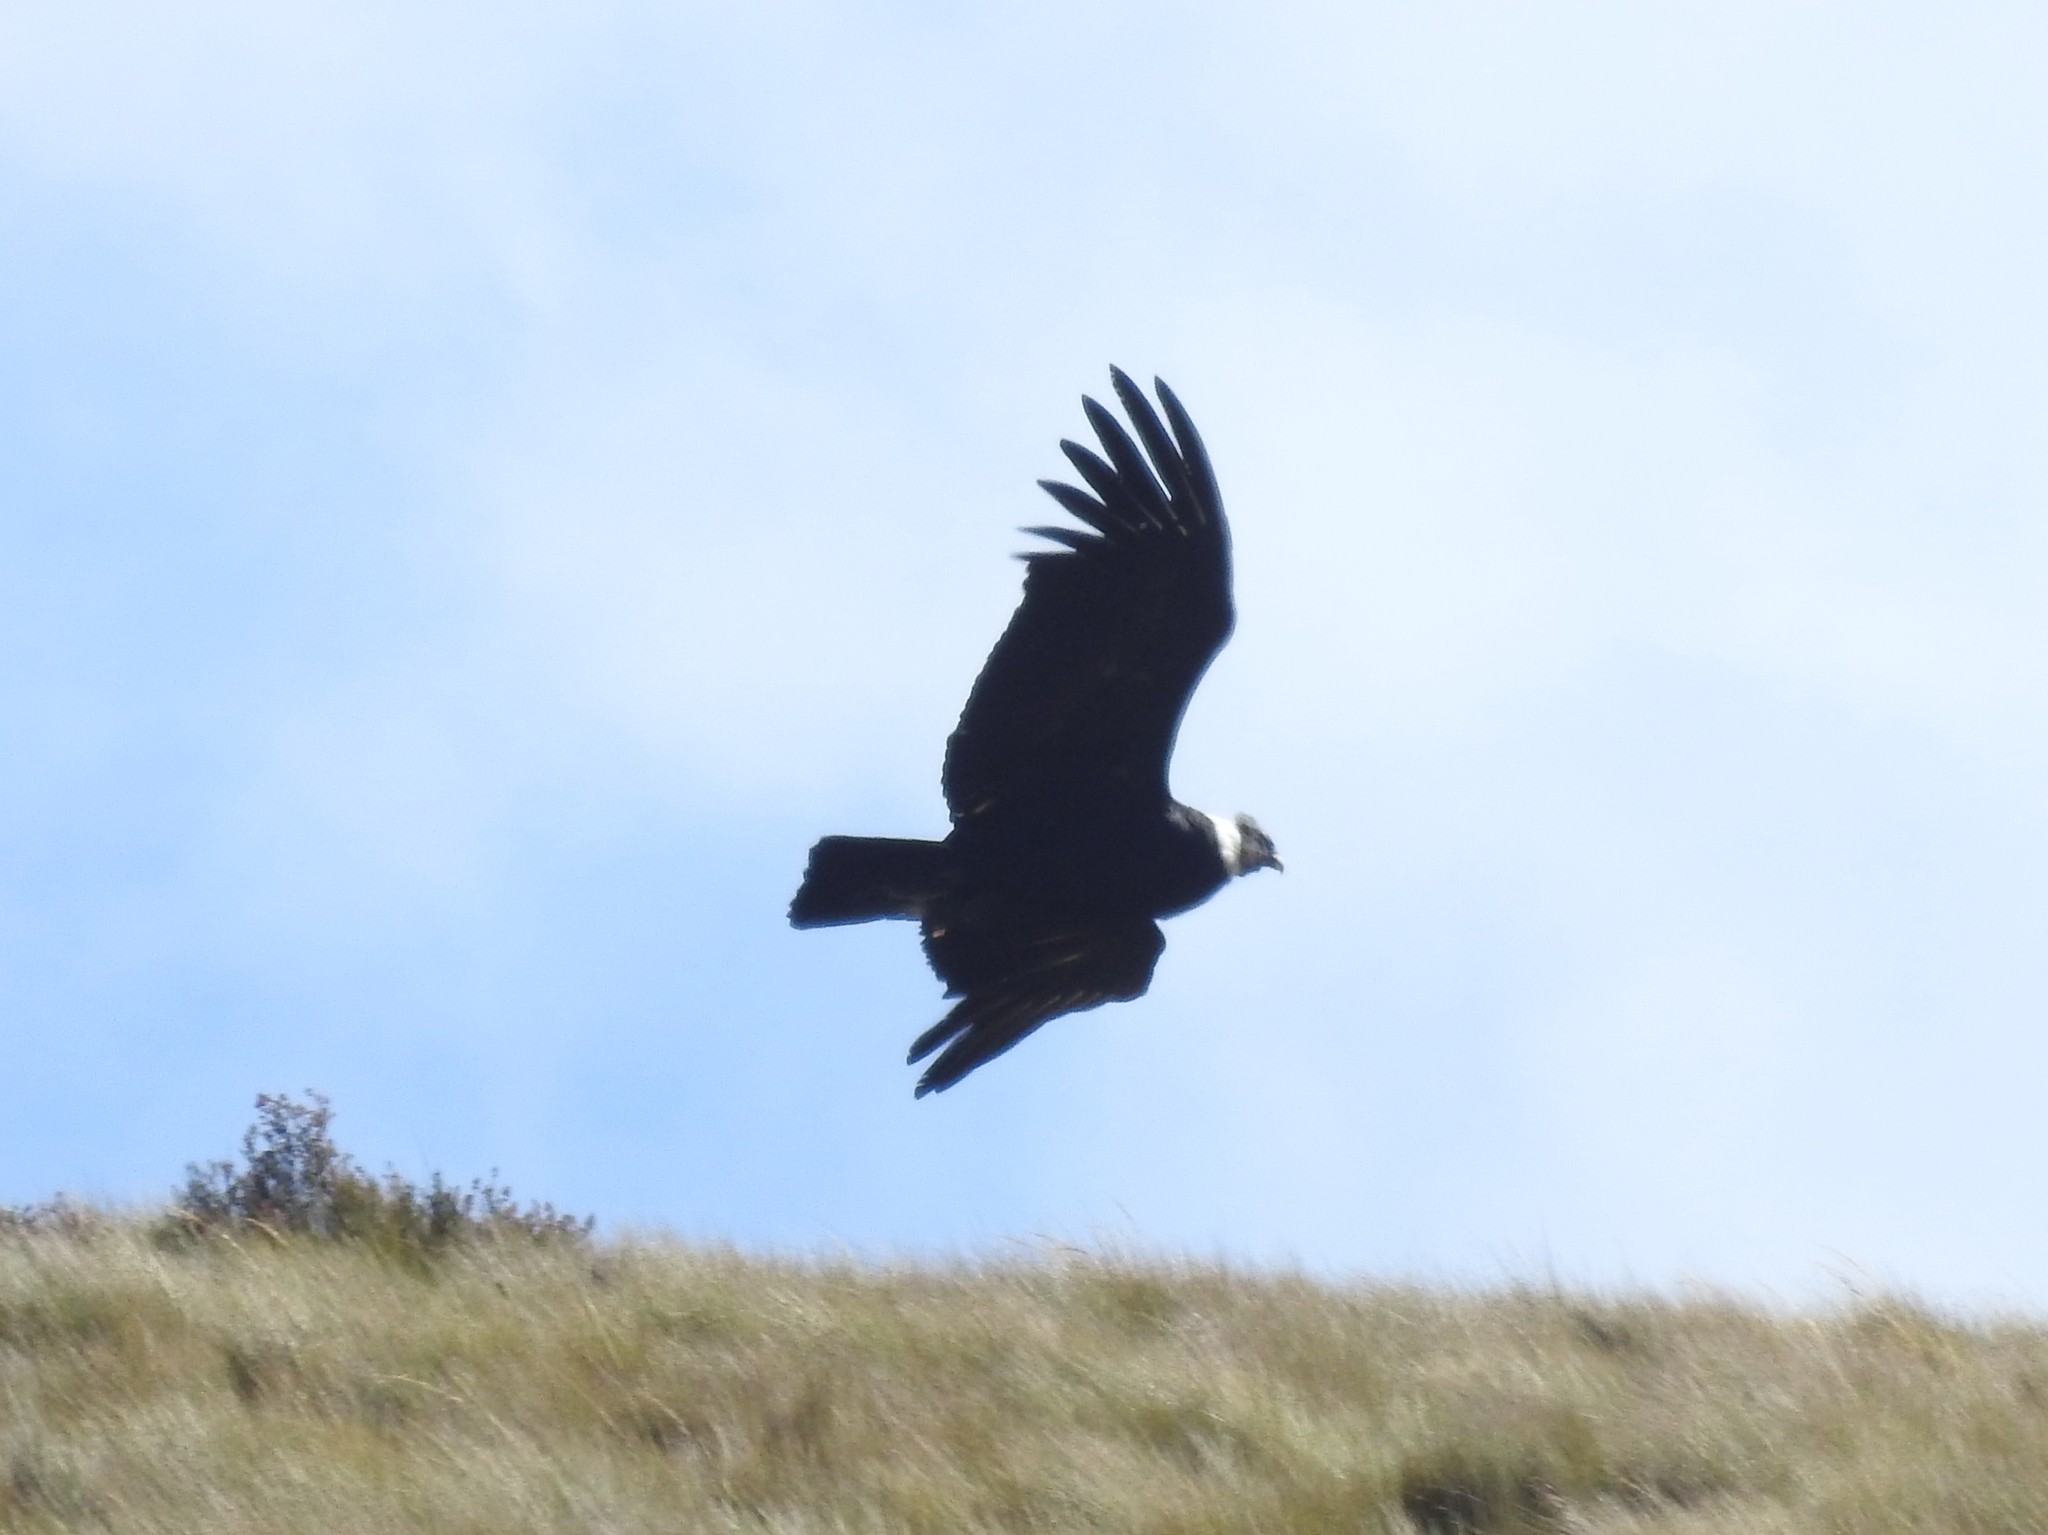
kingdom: Animalia
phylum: Chordata
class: Aves
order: Accipitriformes
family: Cathartidae
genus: Vultur
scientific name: Vultur gryphus
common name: Andean condor
